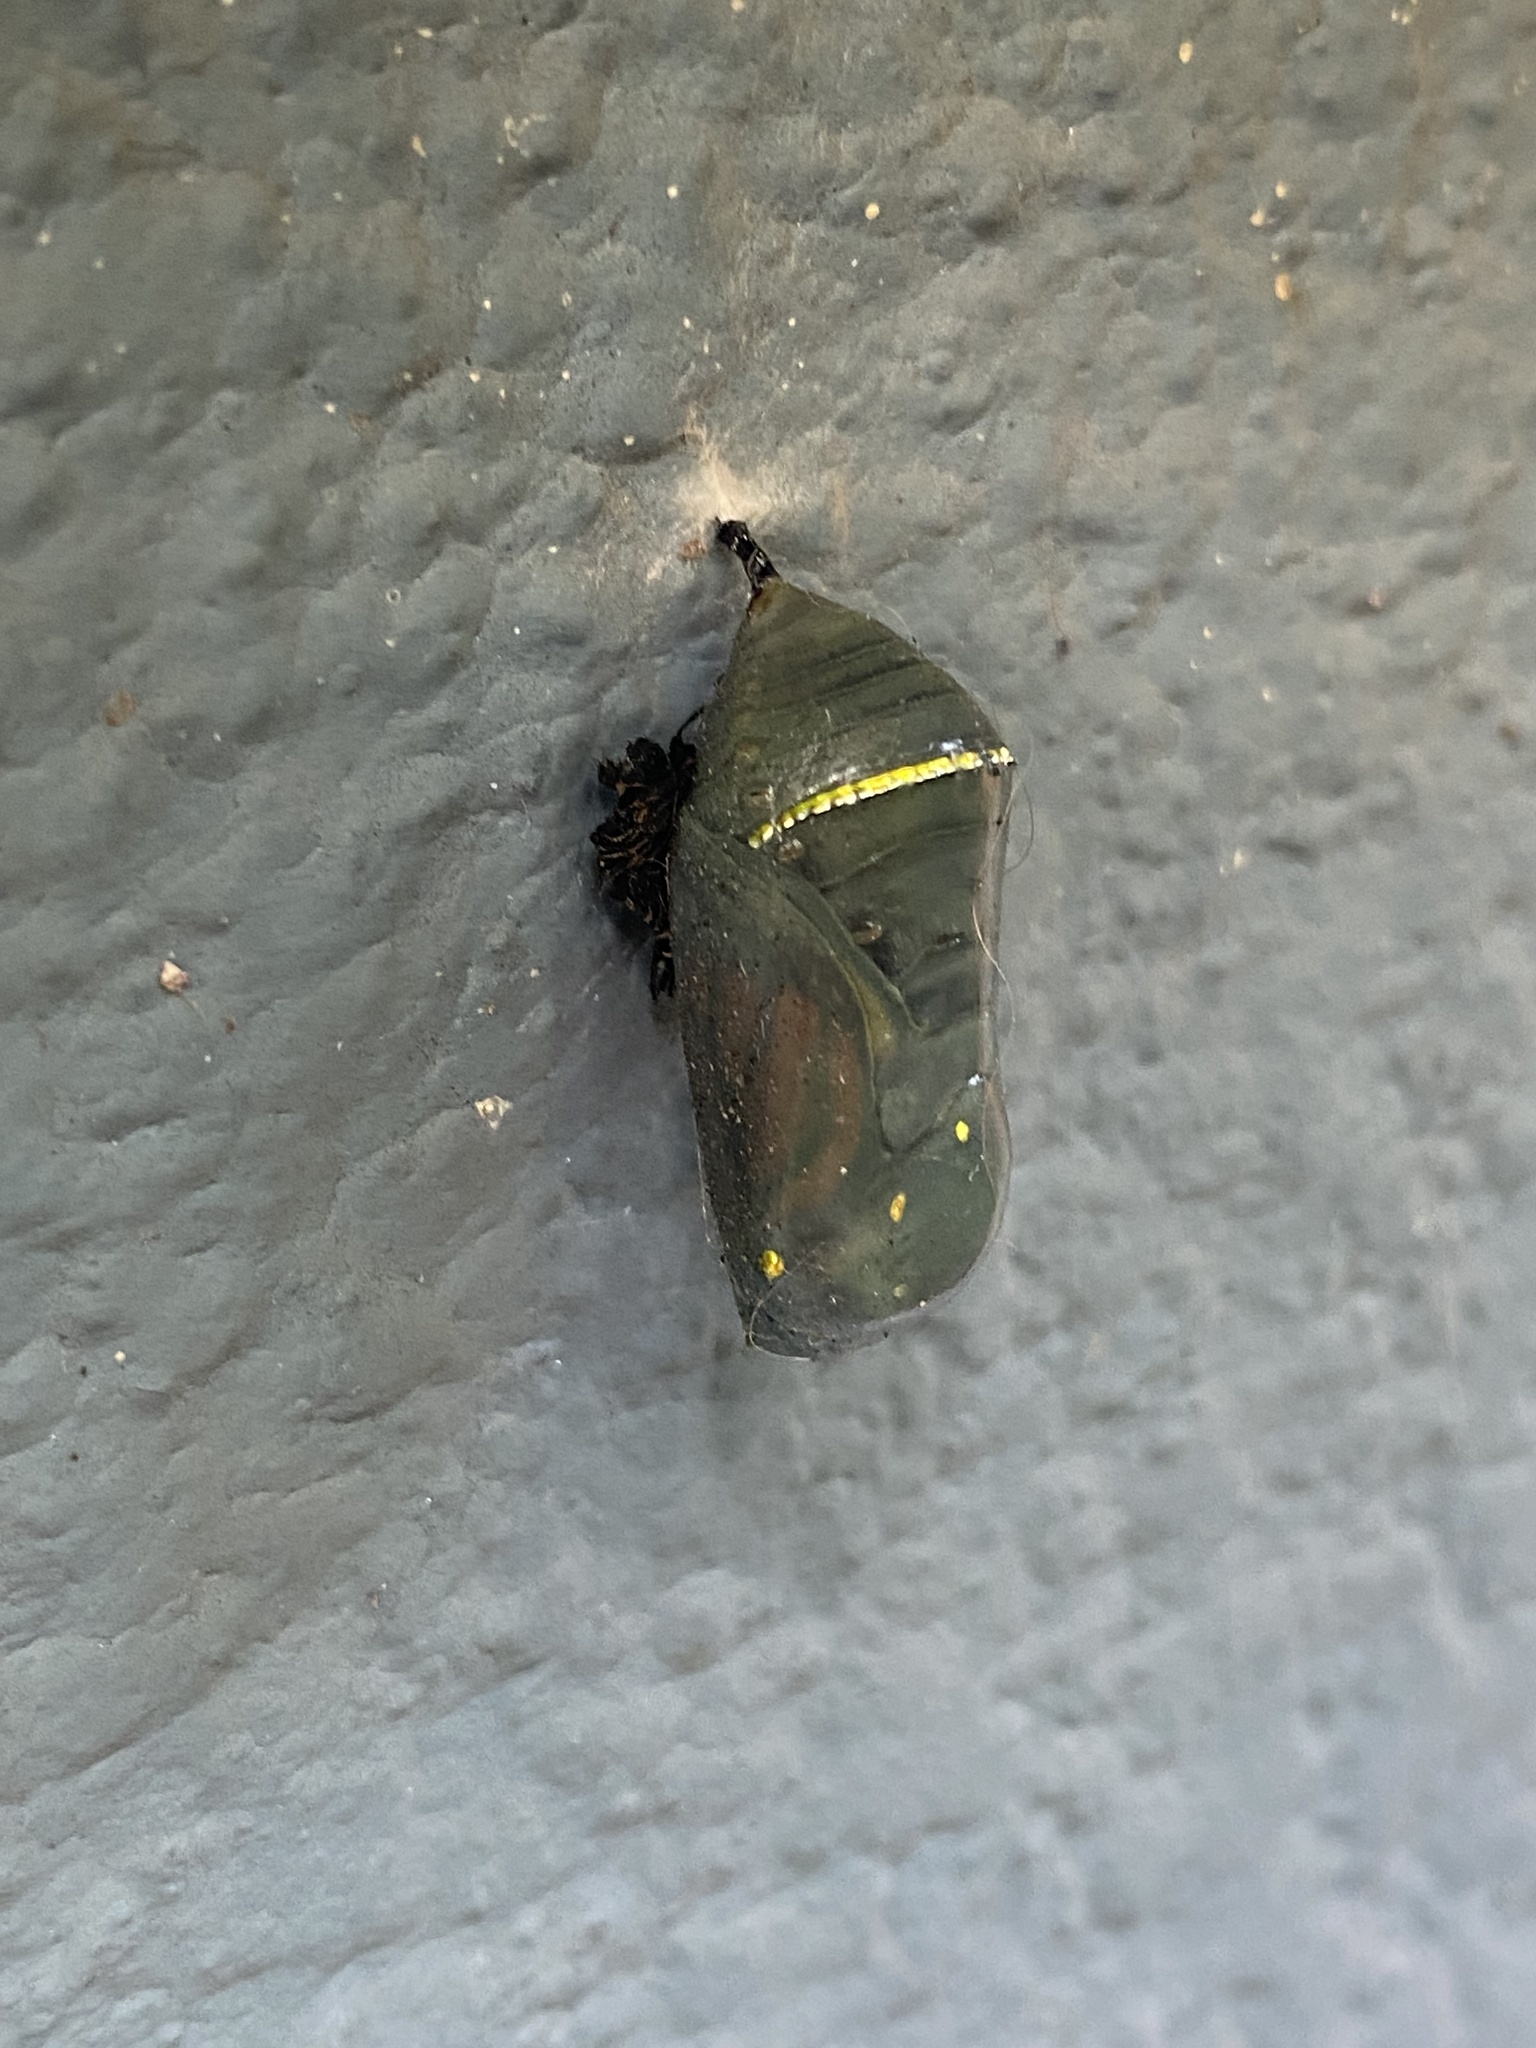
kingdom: Animalia
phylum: Arthropoda
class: Insecta
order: Lepidoptera
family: Nymphalidae
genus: Danaus
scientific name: Danaus erippus
